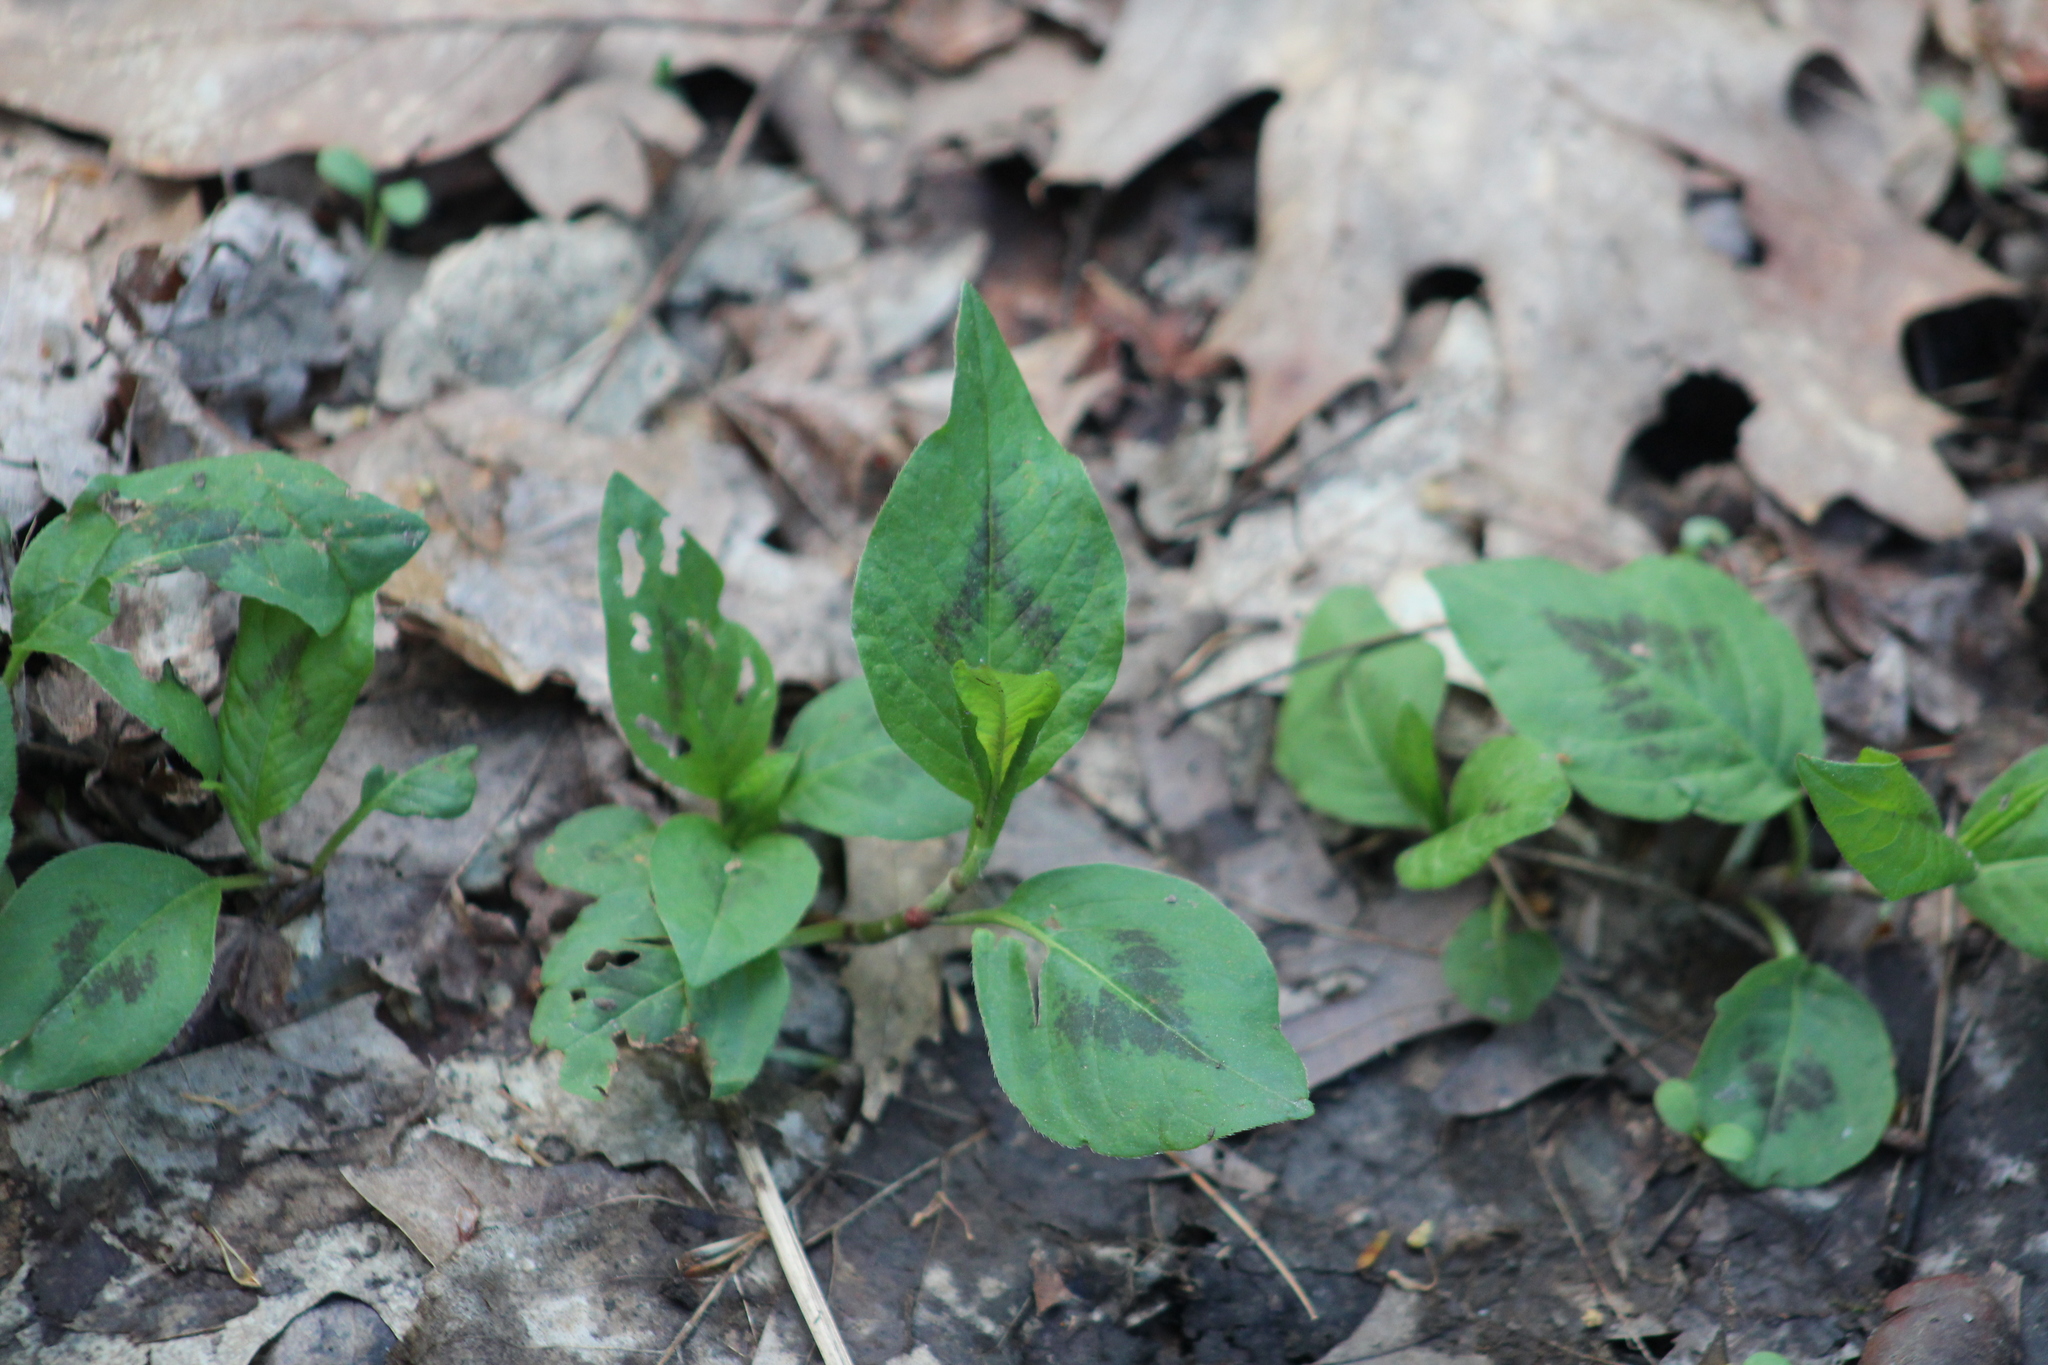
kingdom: Plantae
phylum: Tracheophyta
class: Magnoliopsida
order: Caryophyllales
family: Polygonaceae
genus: Persicaria
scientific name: Persicaria virginiana
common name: Jumpseed
